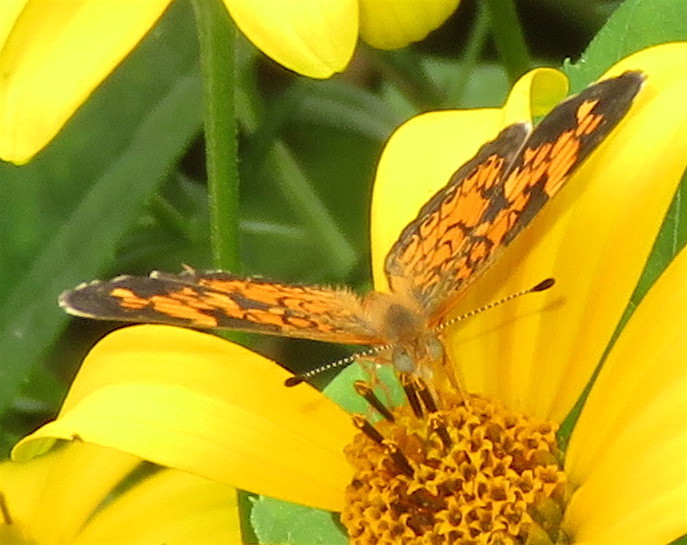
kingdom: Animalia
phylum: Arthropoda
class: Insecta
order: Lepidoptera
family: Nymphalidae
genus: Phyciodes
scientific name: Phyciodes tharos
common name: Pearl crescent
